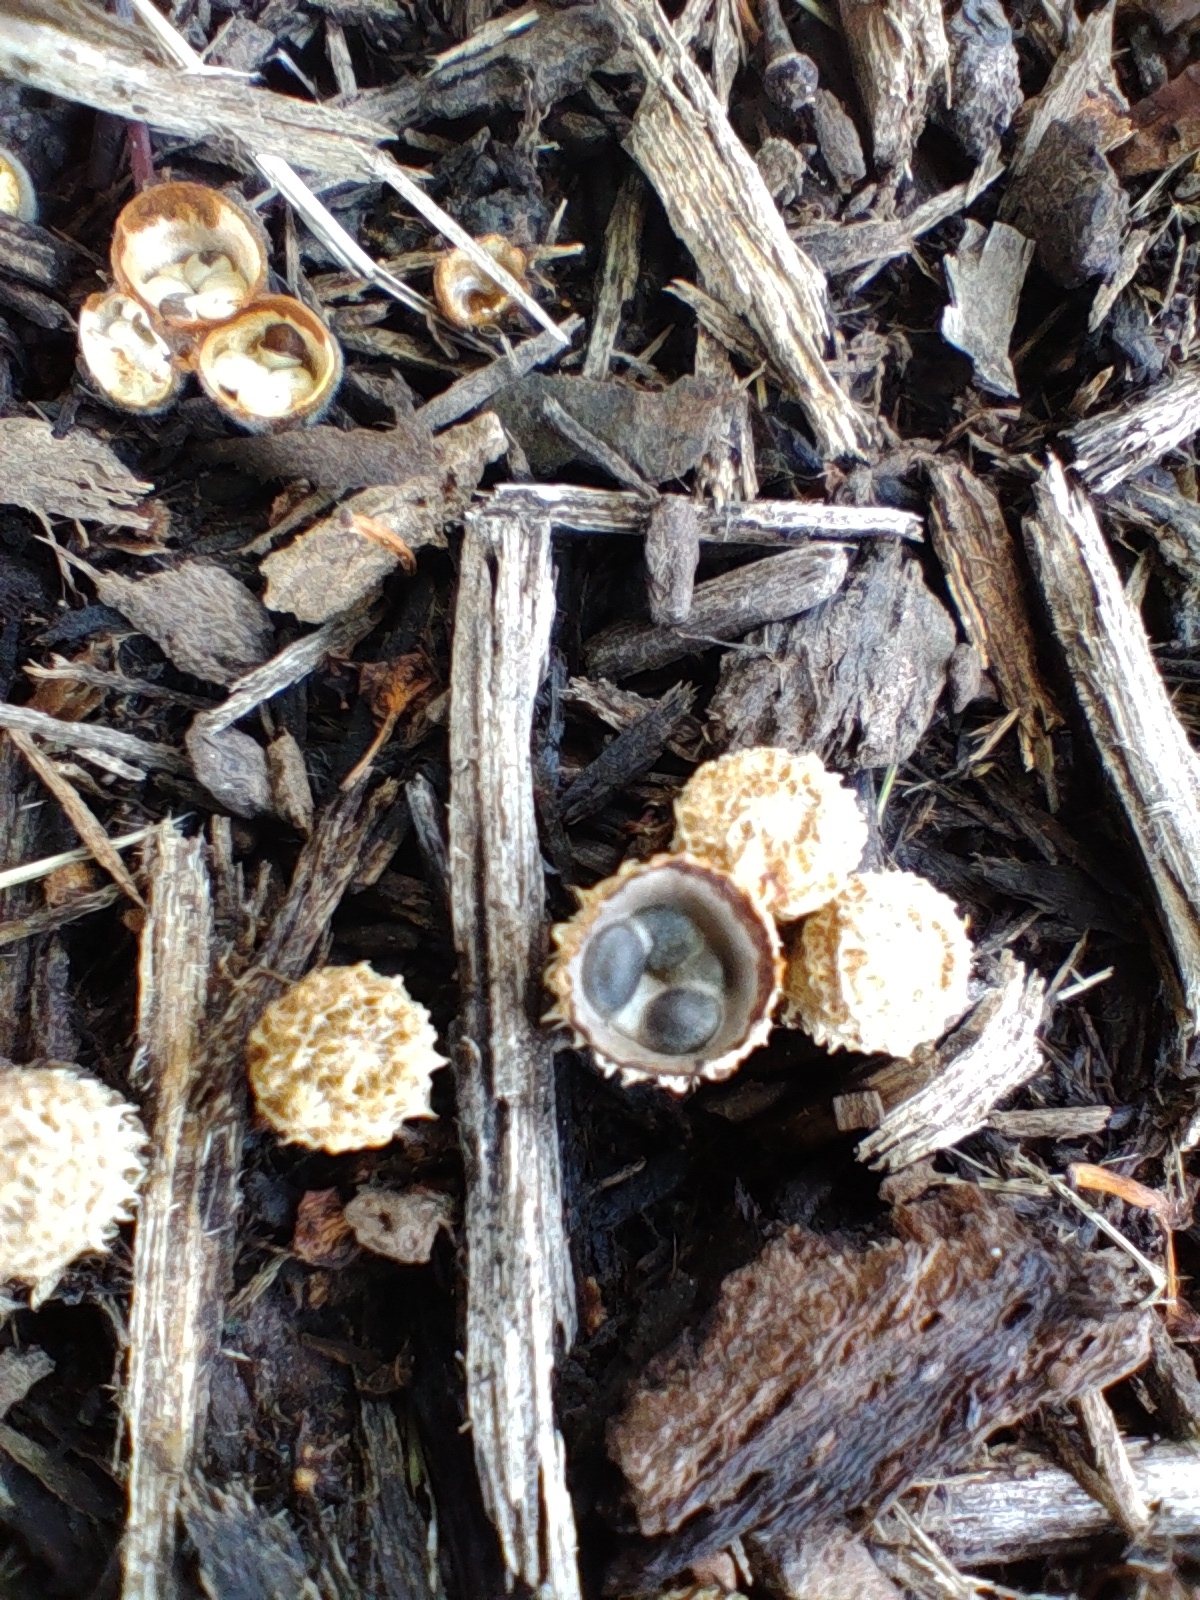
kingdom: Fungi
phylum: Basidiomycota
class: Agaricomycetes
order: Agaricales
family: Agaricaceae
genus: Cyathus
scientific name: Cyathus olla
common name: Field bird's nest
